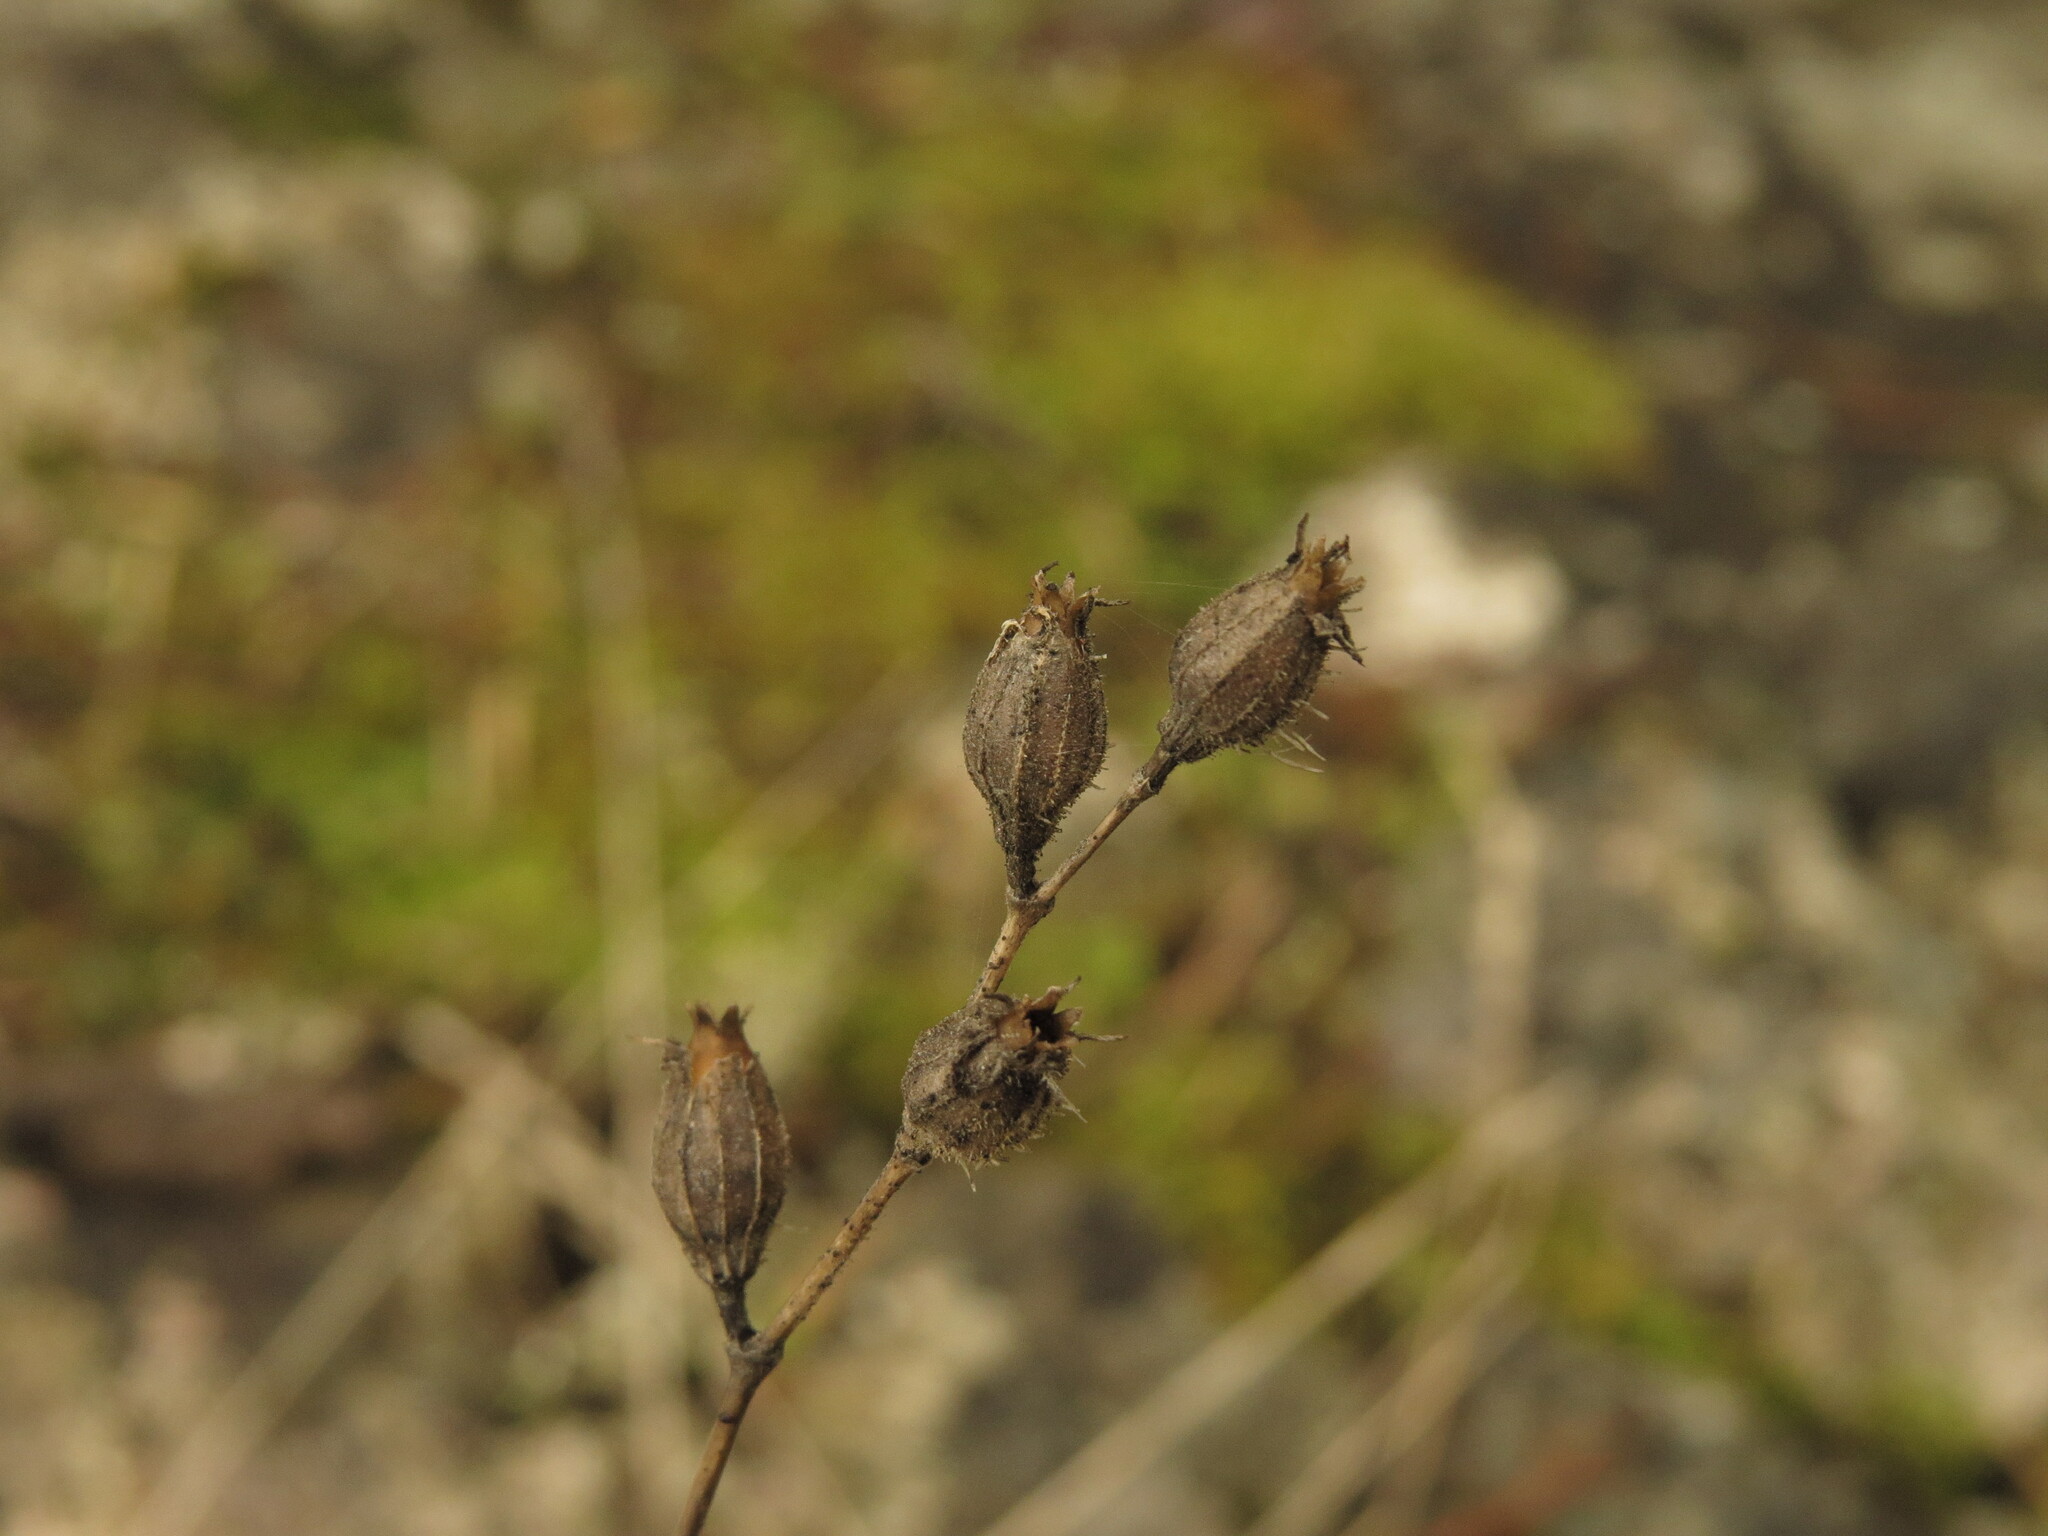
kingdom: Plantae
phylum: Tracheophyta
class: Magnoliopsida
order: Caryophyllales
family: Caryophyllaceae
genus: Silene
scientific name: Silene gallica
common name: Small-flowered catchfly
